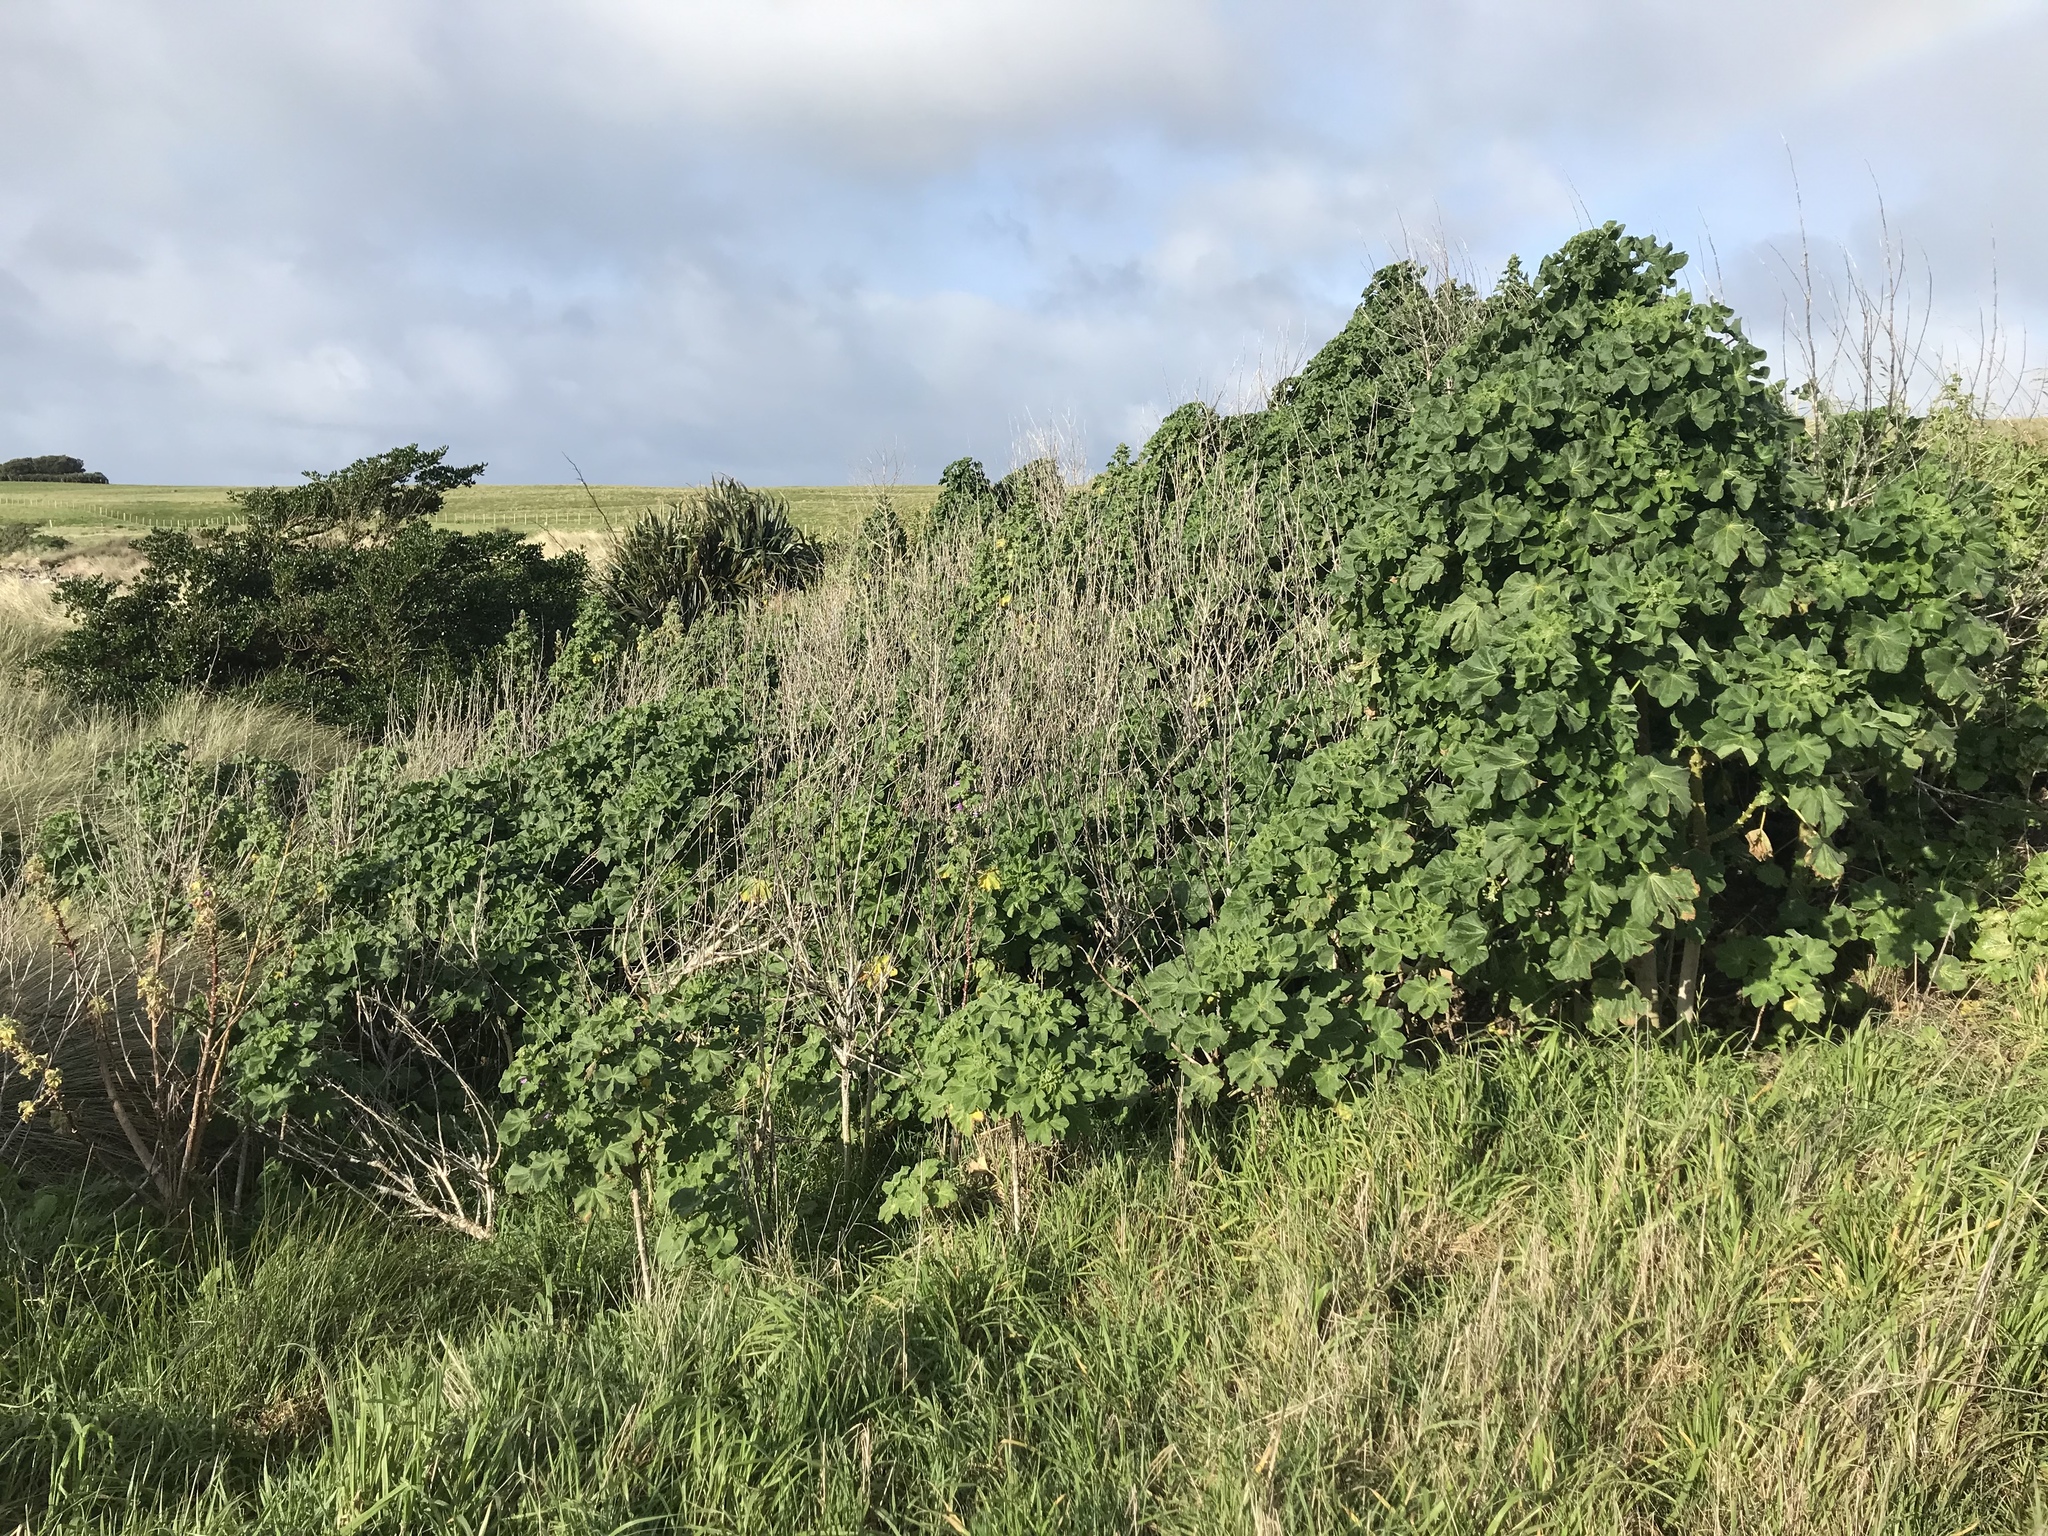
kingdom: Plantae
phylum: Tracheophyta
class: Magnoliopsida
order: Malvales
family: Malvaceae
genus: Malva
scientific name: Malva arborea
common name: Tree mallow
